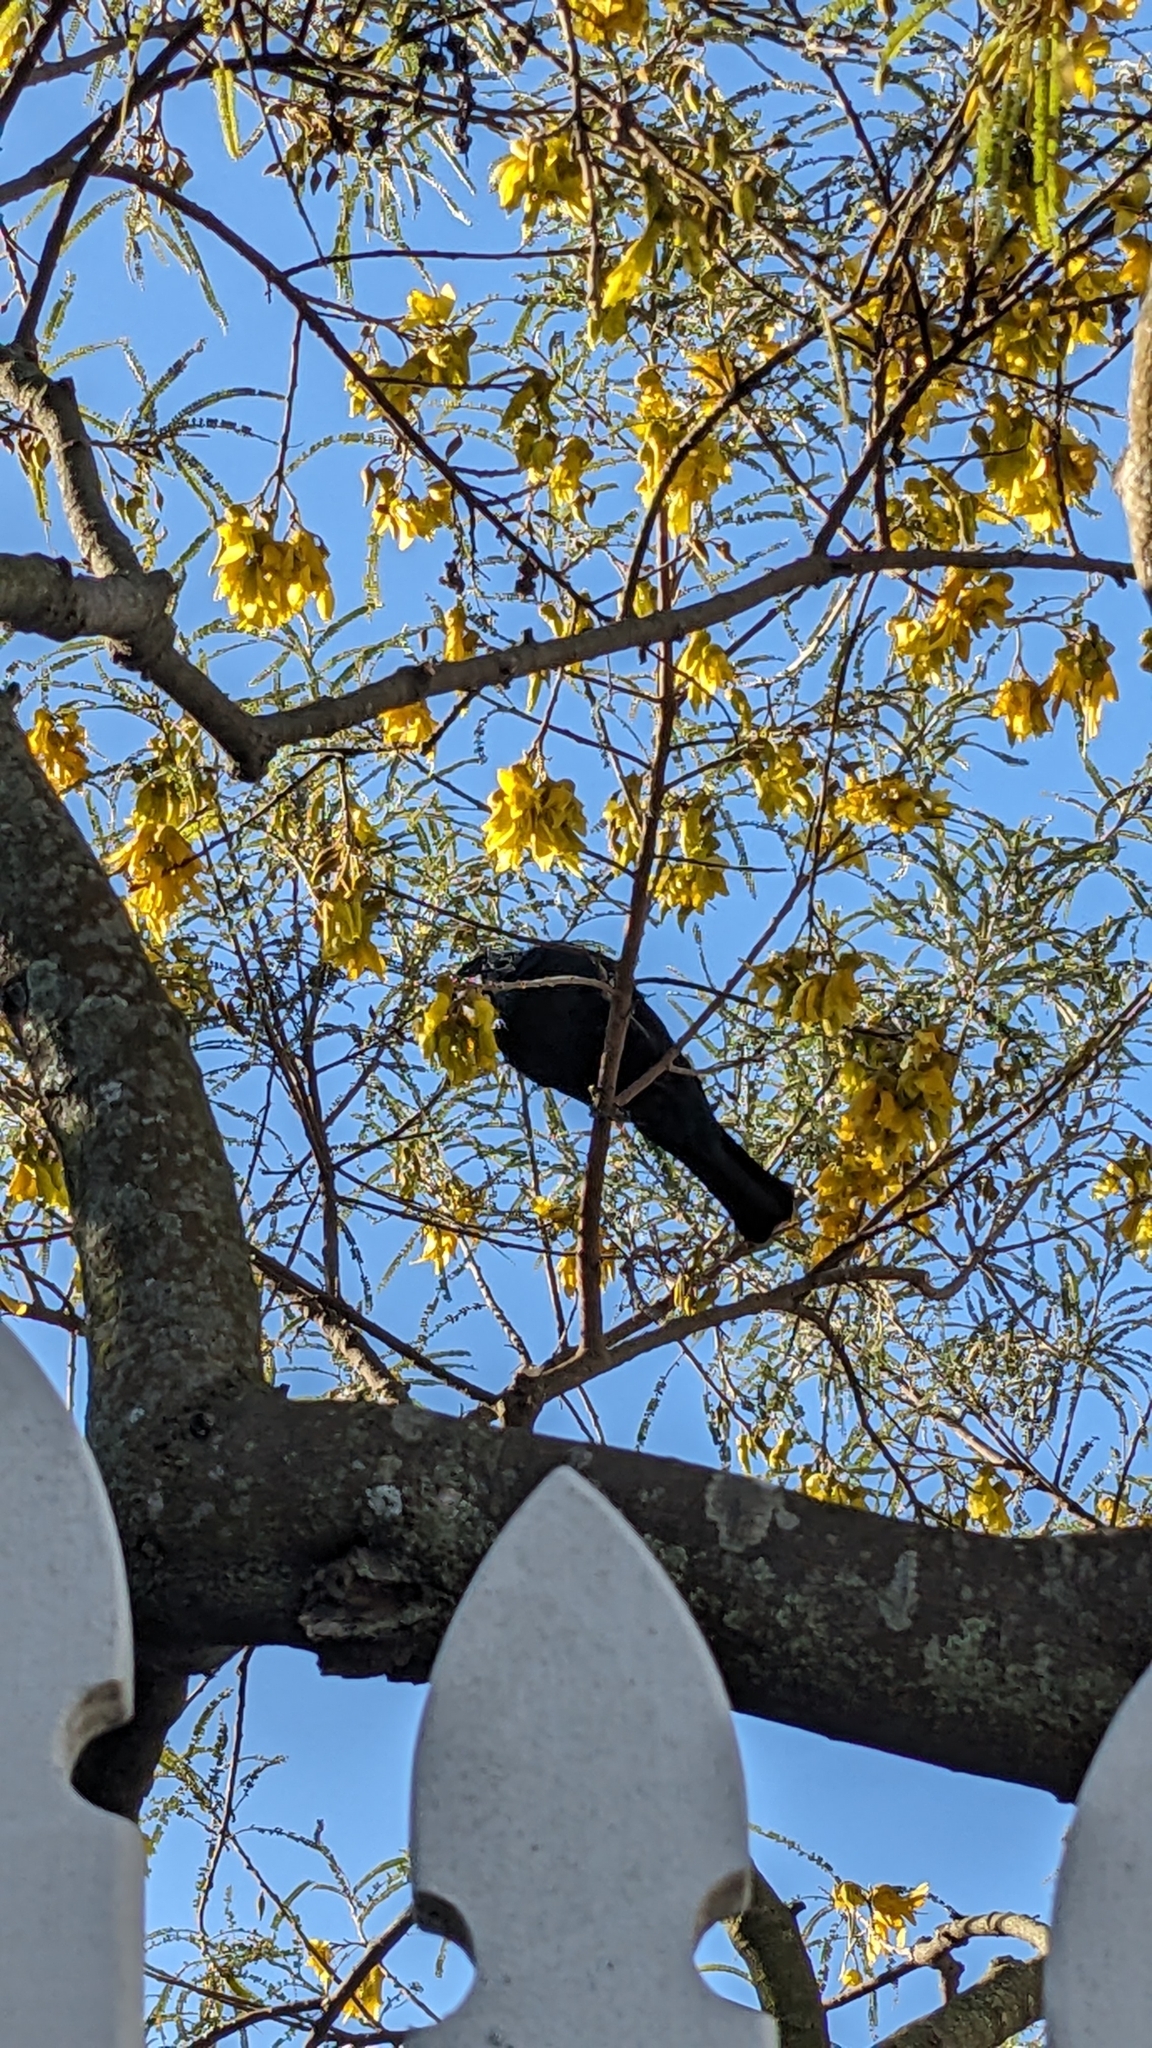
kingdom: Animalia
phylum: Chordata
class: Aves
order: Passeriformes
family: Meliphagidae
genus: Prosthemadera
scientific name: Prosthemadera novaeseelandiae
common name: Tui
